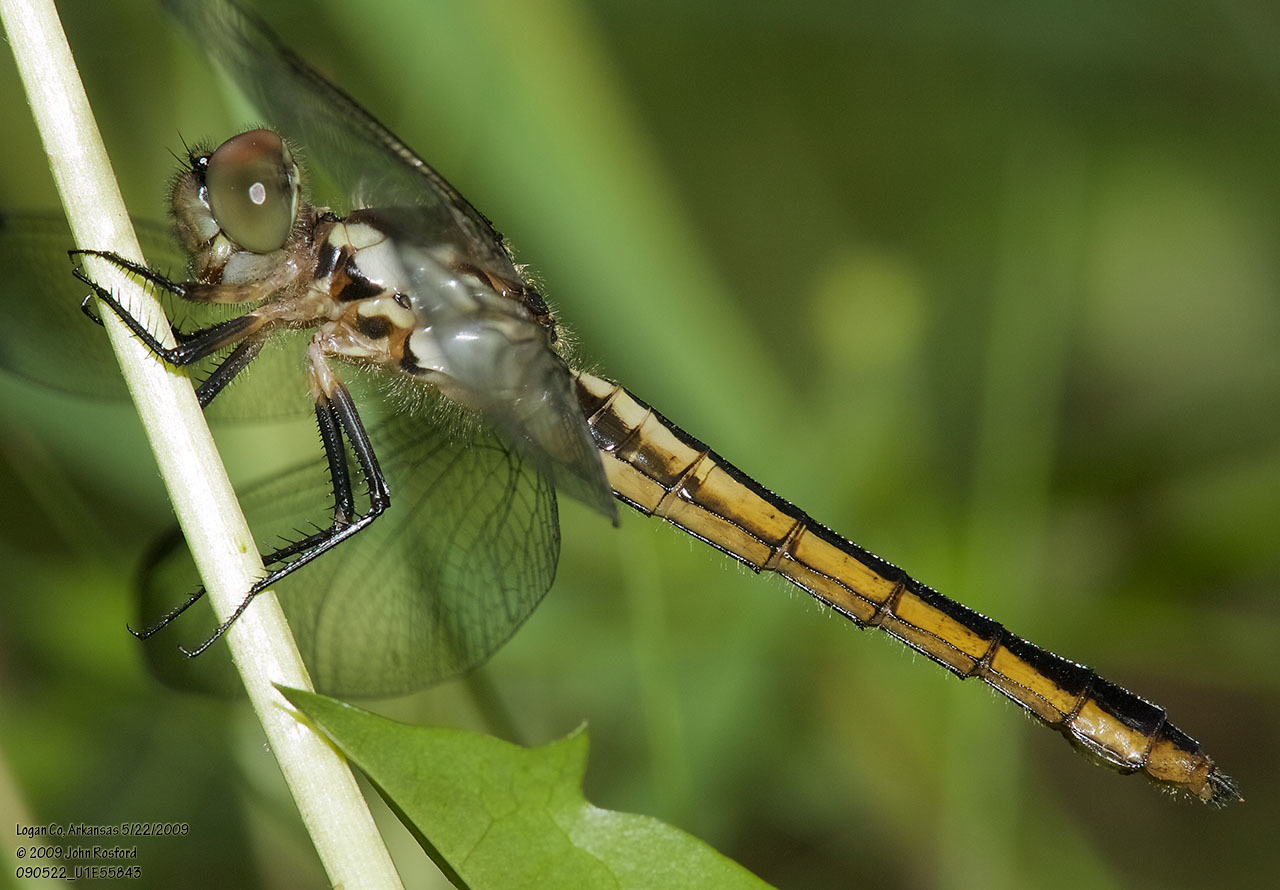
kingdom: Animalia
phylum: Arthropoda
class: Insecta
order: Odonata
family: Libellulidae
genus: Libellula
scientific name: Libellula incesta
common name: Slaty skimmer
